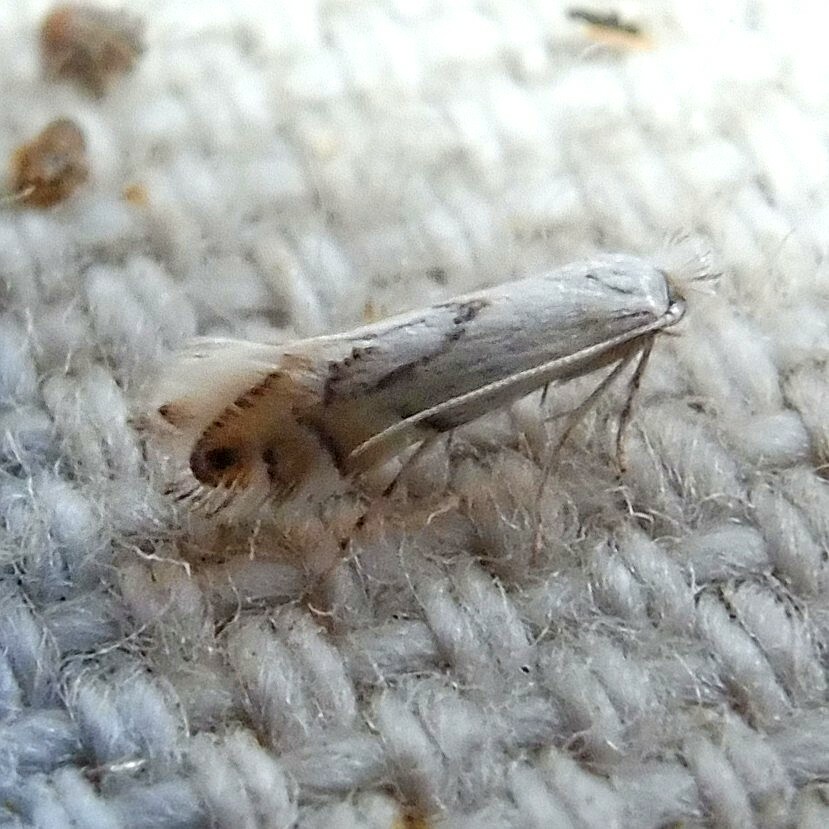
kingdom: Animalia
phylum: Arthropoda
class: Insecta
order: Lepidoptera
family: Gracillariidae
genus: Phyllonorycter
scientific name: Phyllonorycter harrisella
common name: White oak midget
